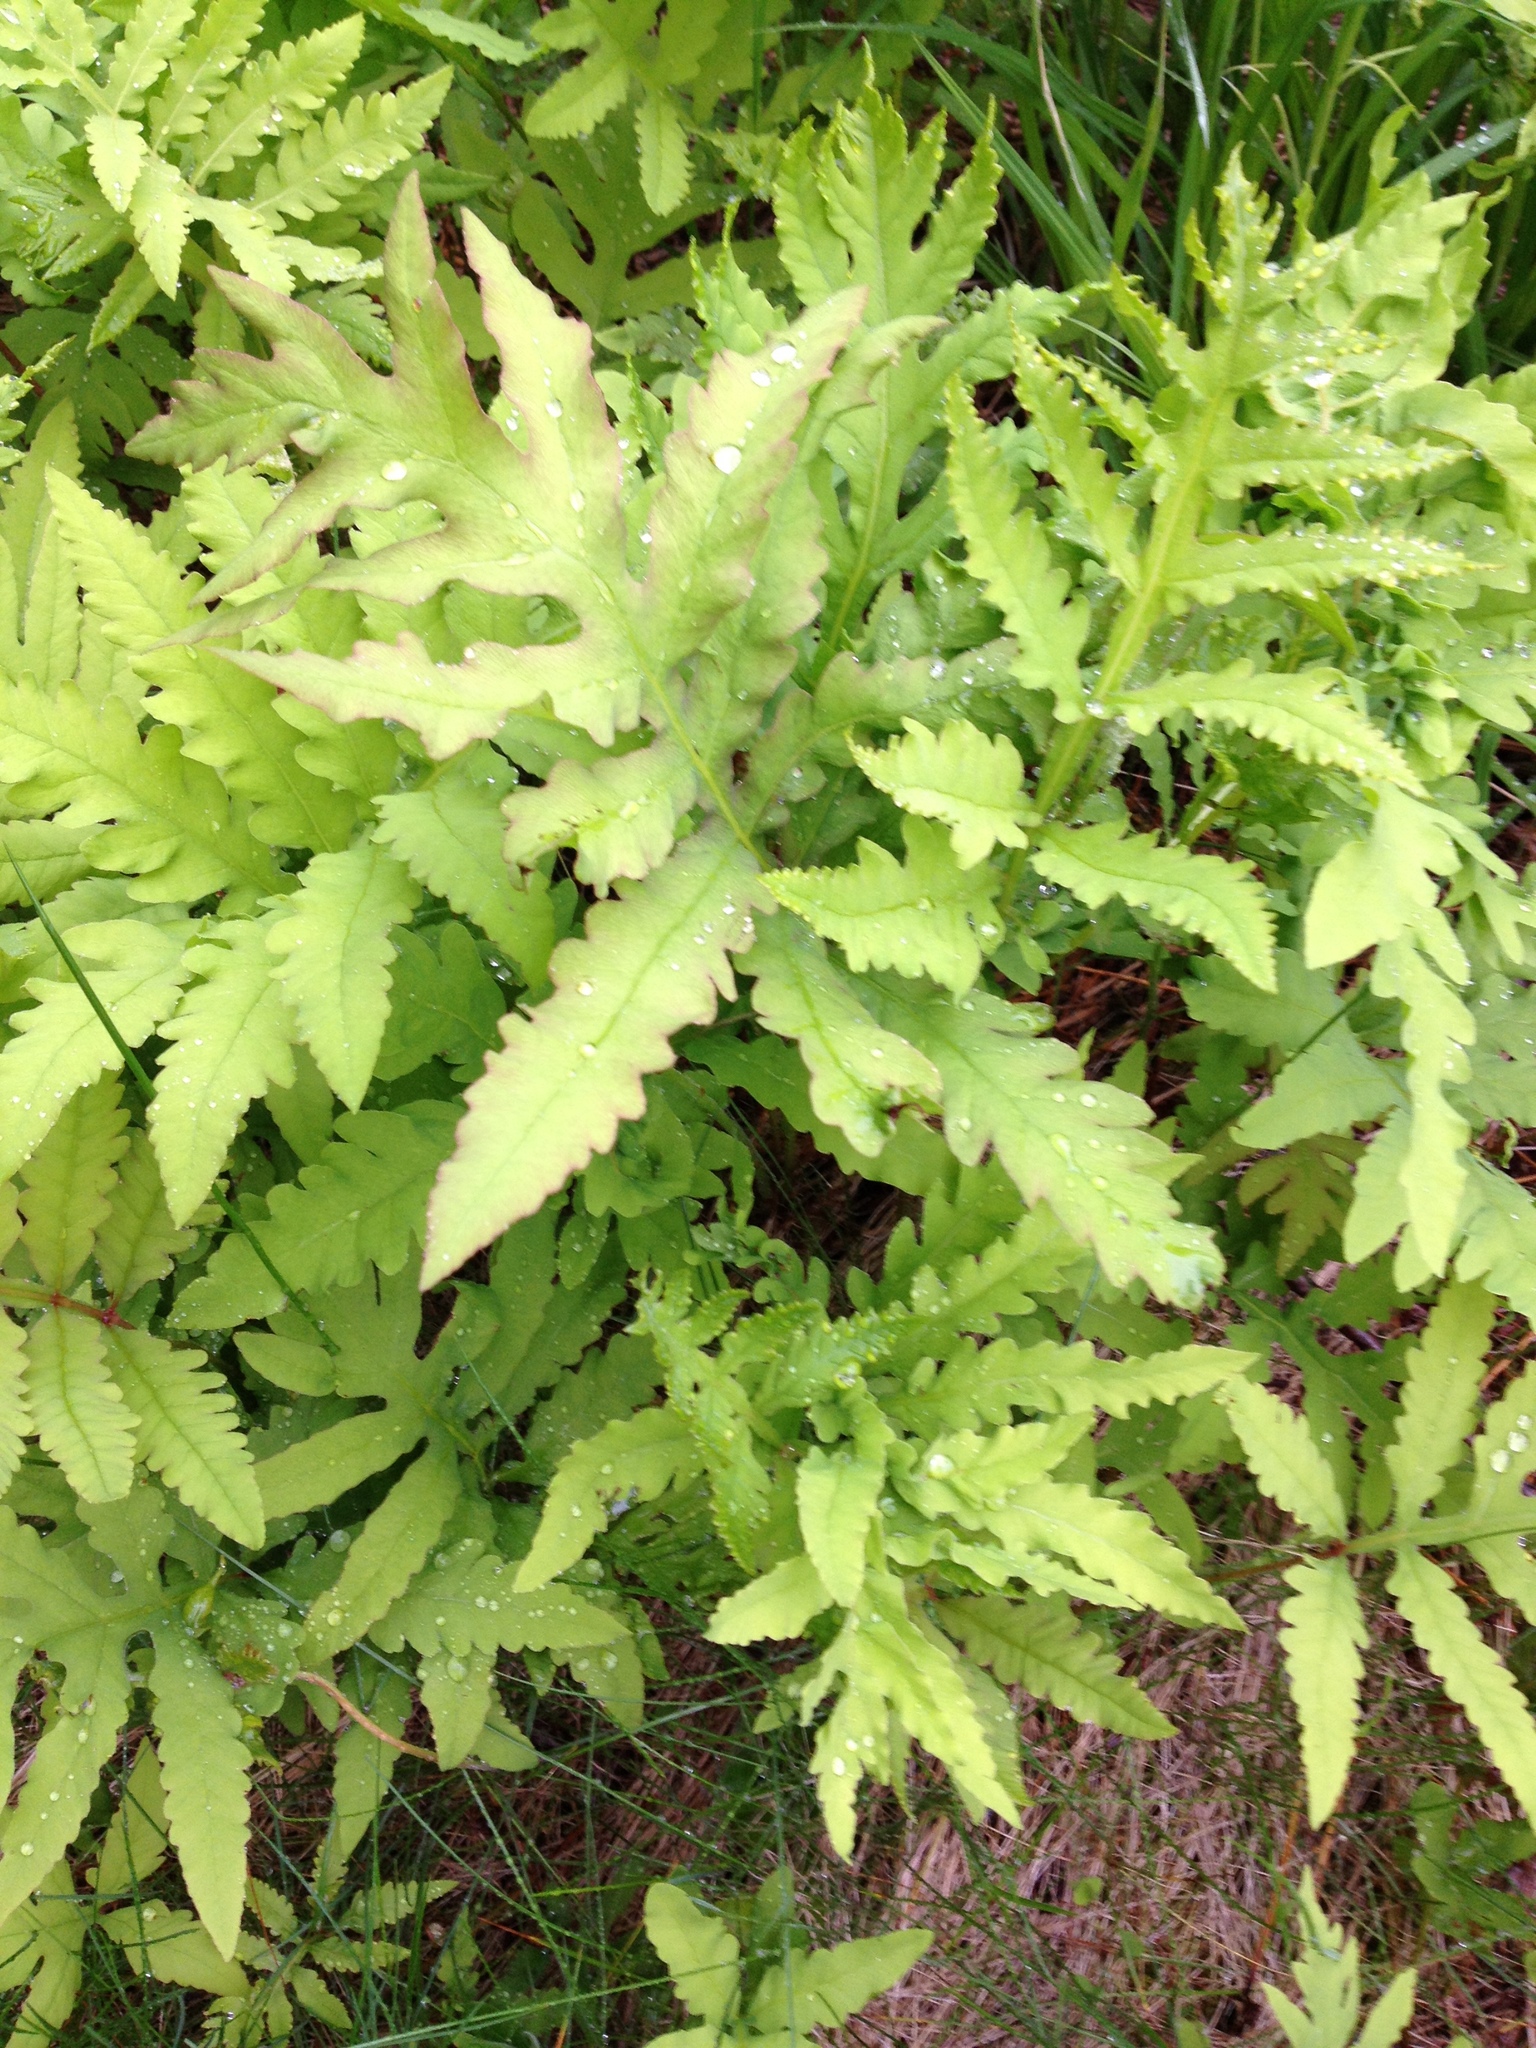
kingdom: Plantae
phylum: Tracheophyta
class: Polypodiopsida
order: Polypodiales
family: Onocleaceae
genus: Onoclea
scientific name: Onoclea sensibilis
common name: Sensitive fern
